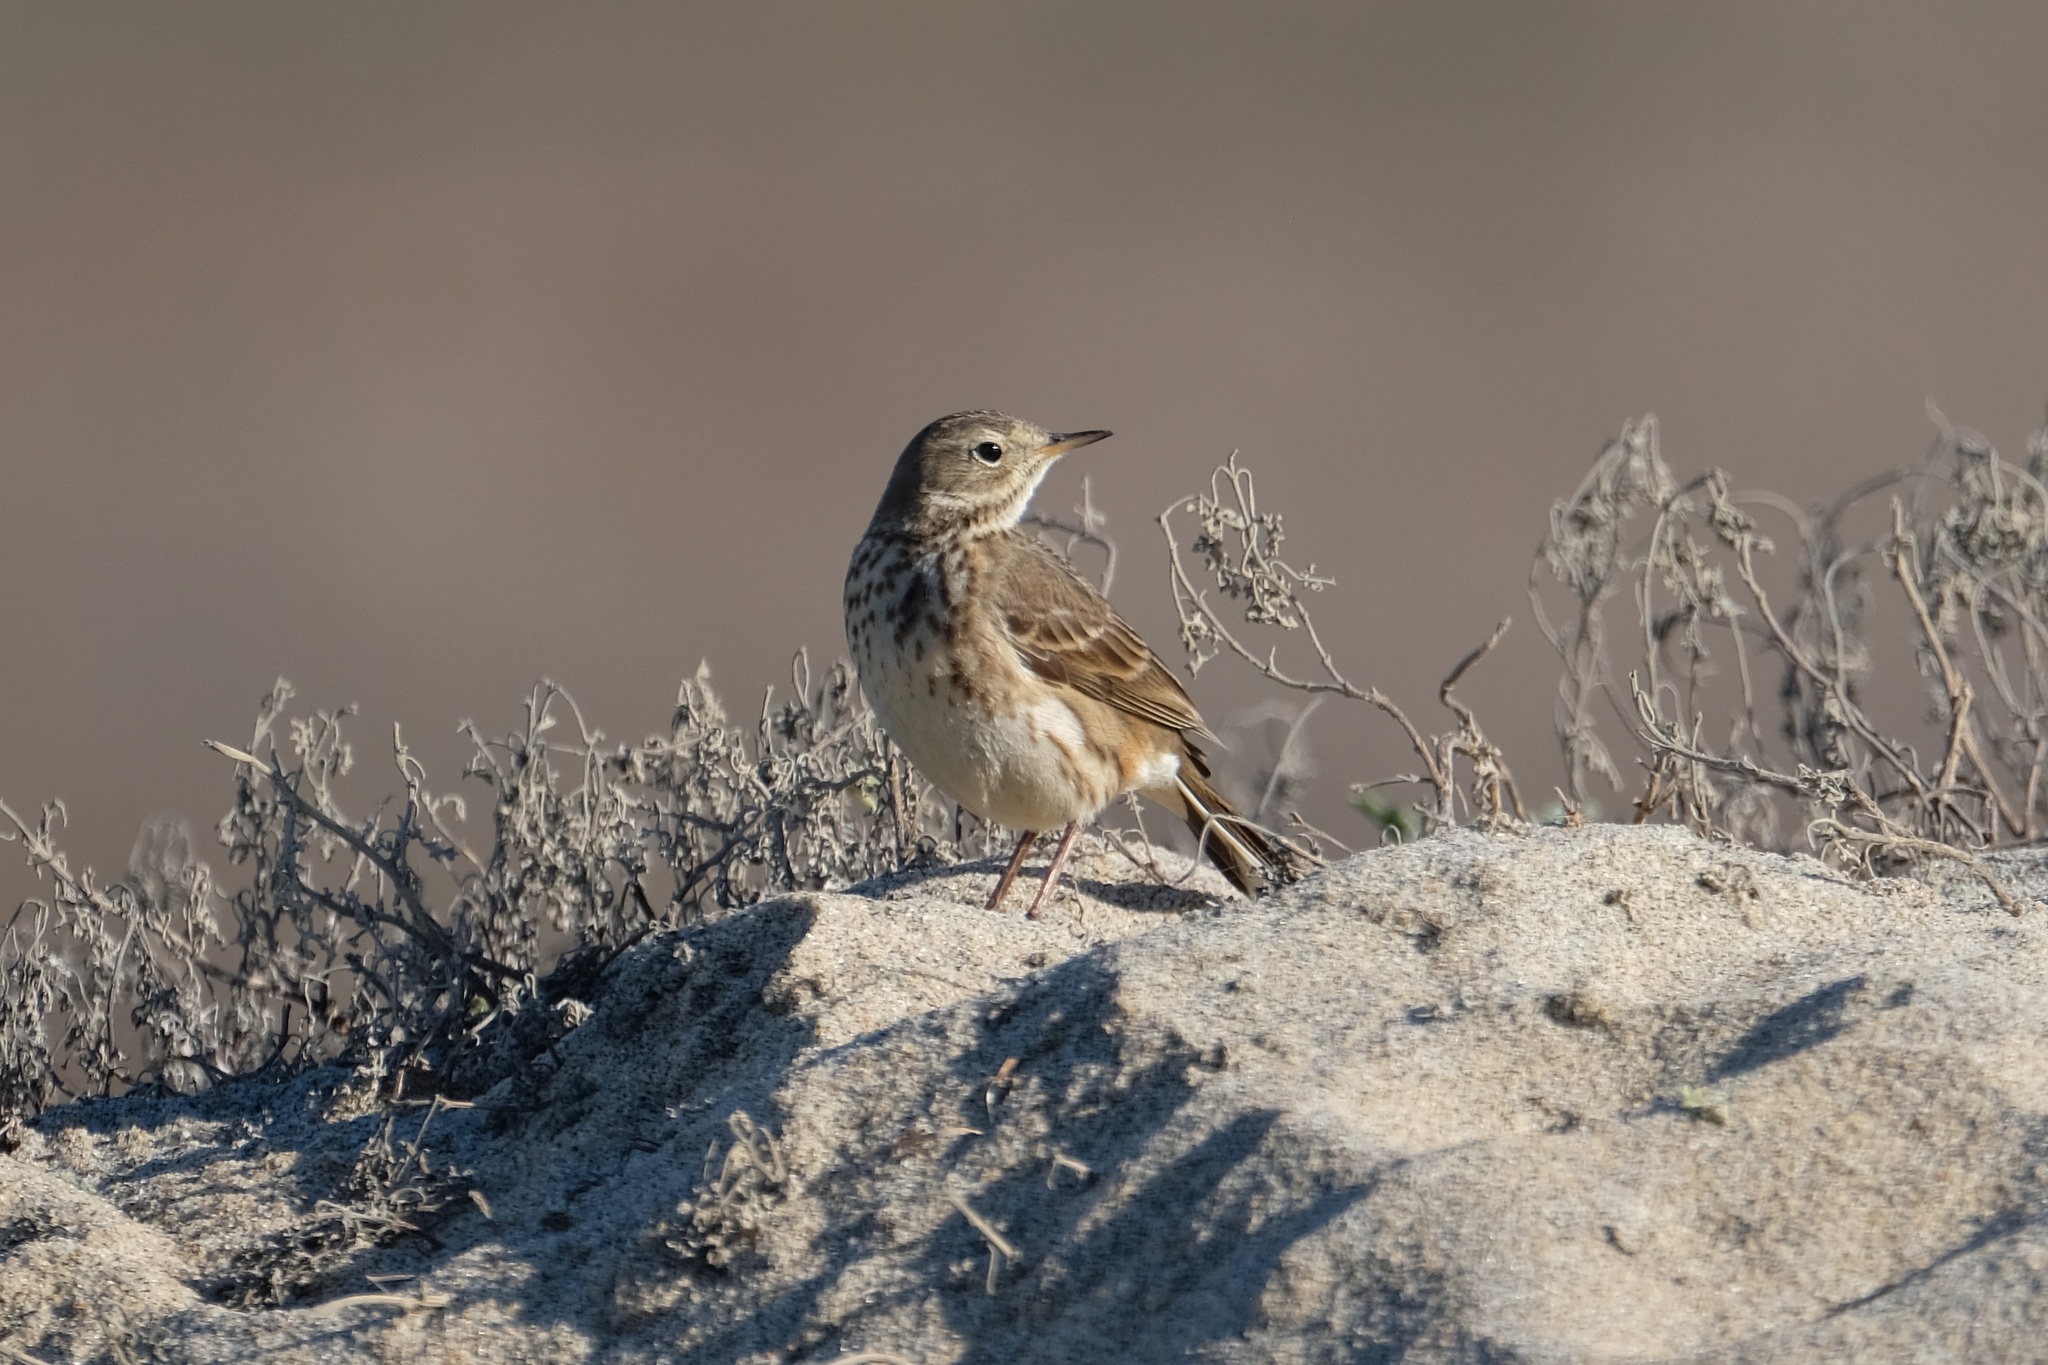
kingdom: Animalia
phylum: Chordata
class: Aves
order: Passeriformes
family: Motacillidae
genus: Anthus
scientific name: Anthus rubescens
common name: Buff-bellied pipit
